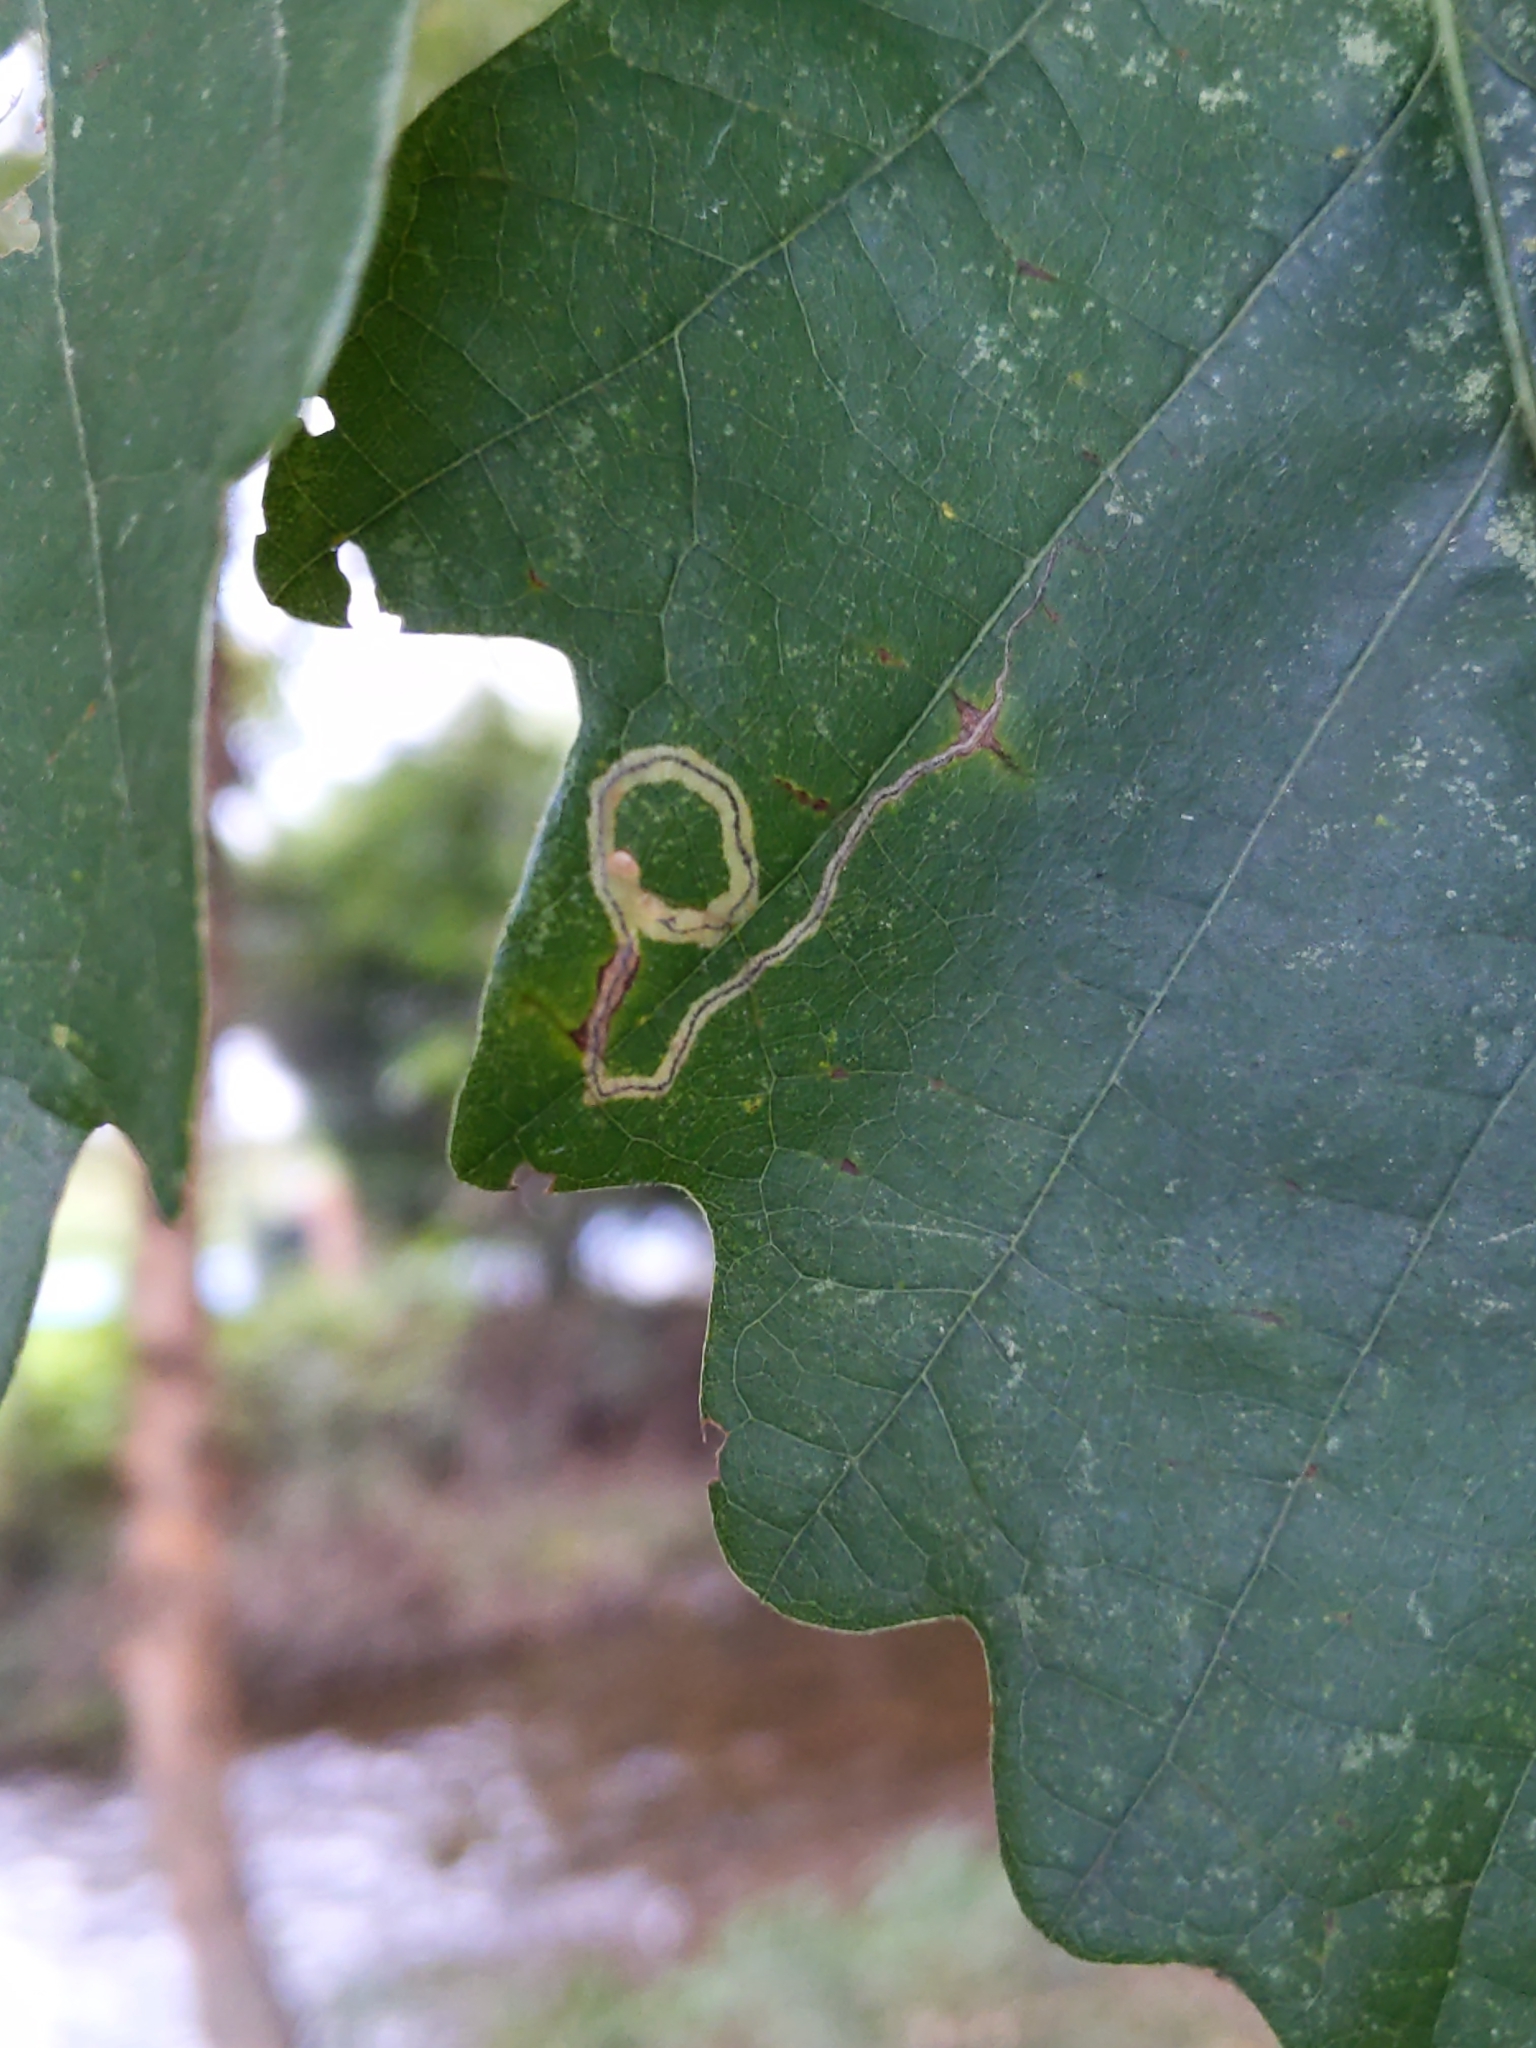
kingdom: Animalia
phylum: Arthropoda
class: Insecta
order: Lepidoptera
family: Nepticulidae
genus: Stigmella
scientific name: Stigmella
